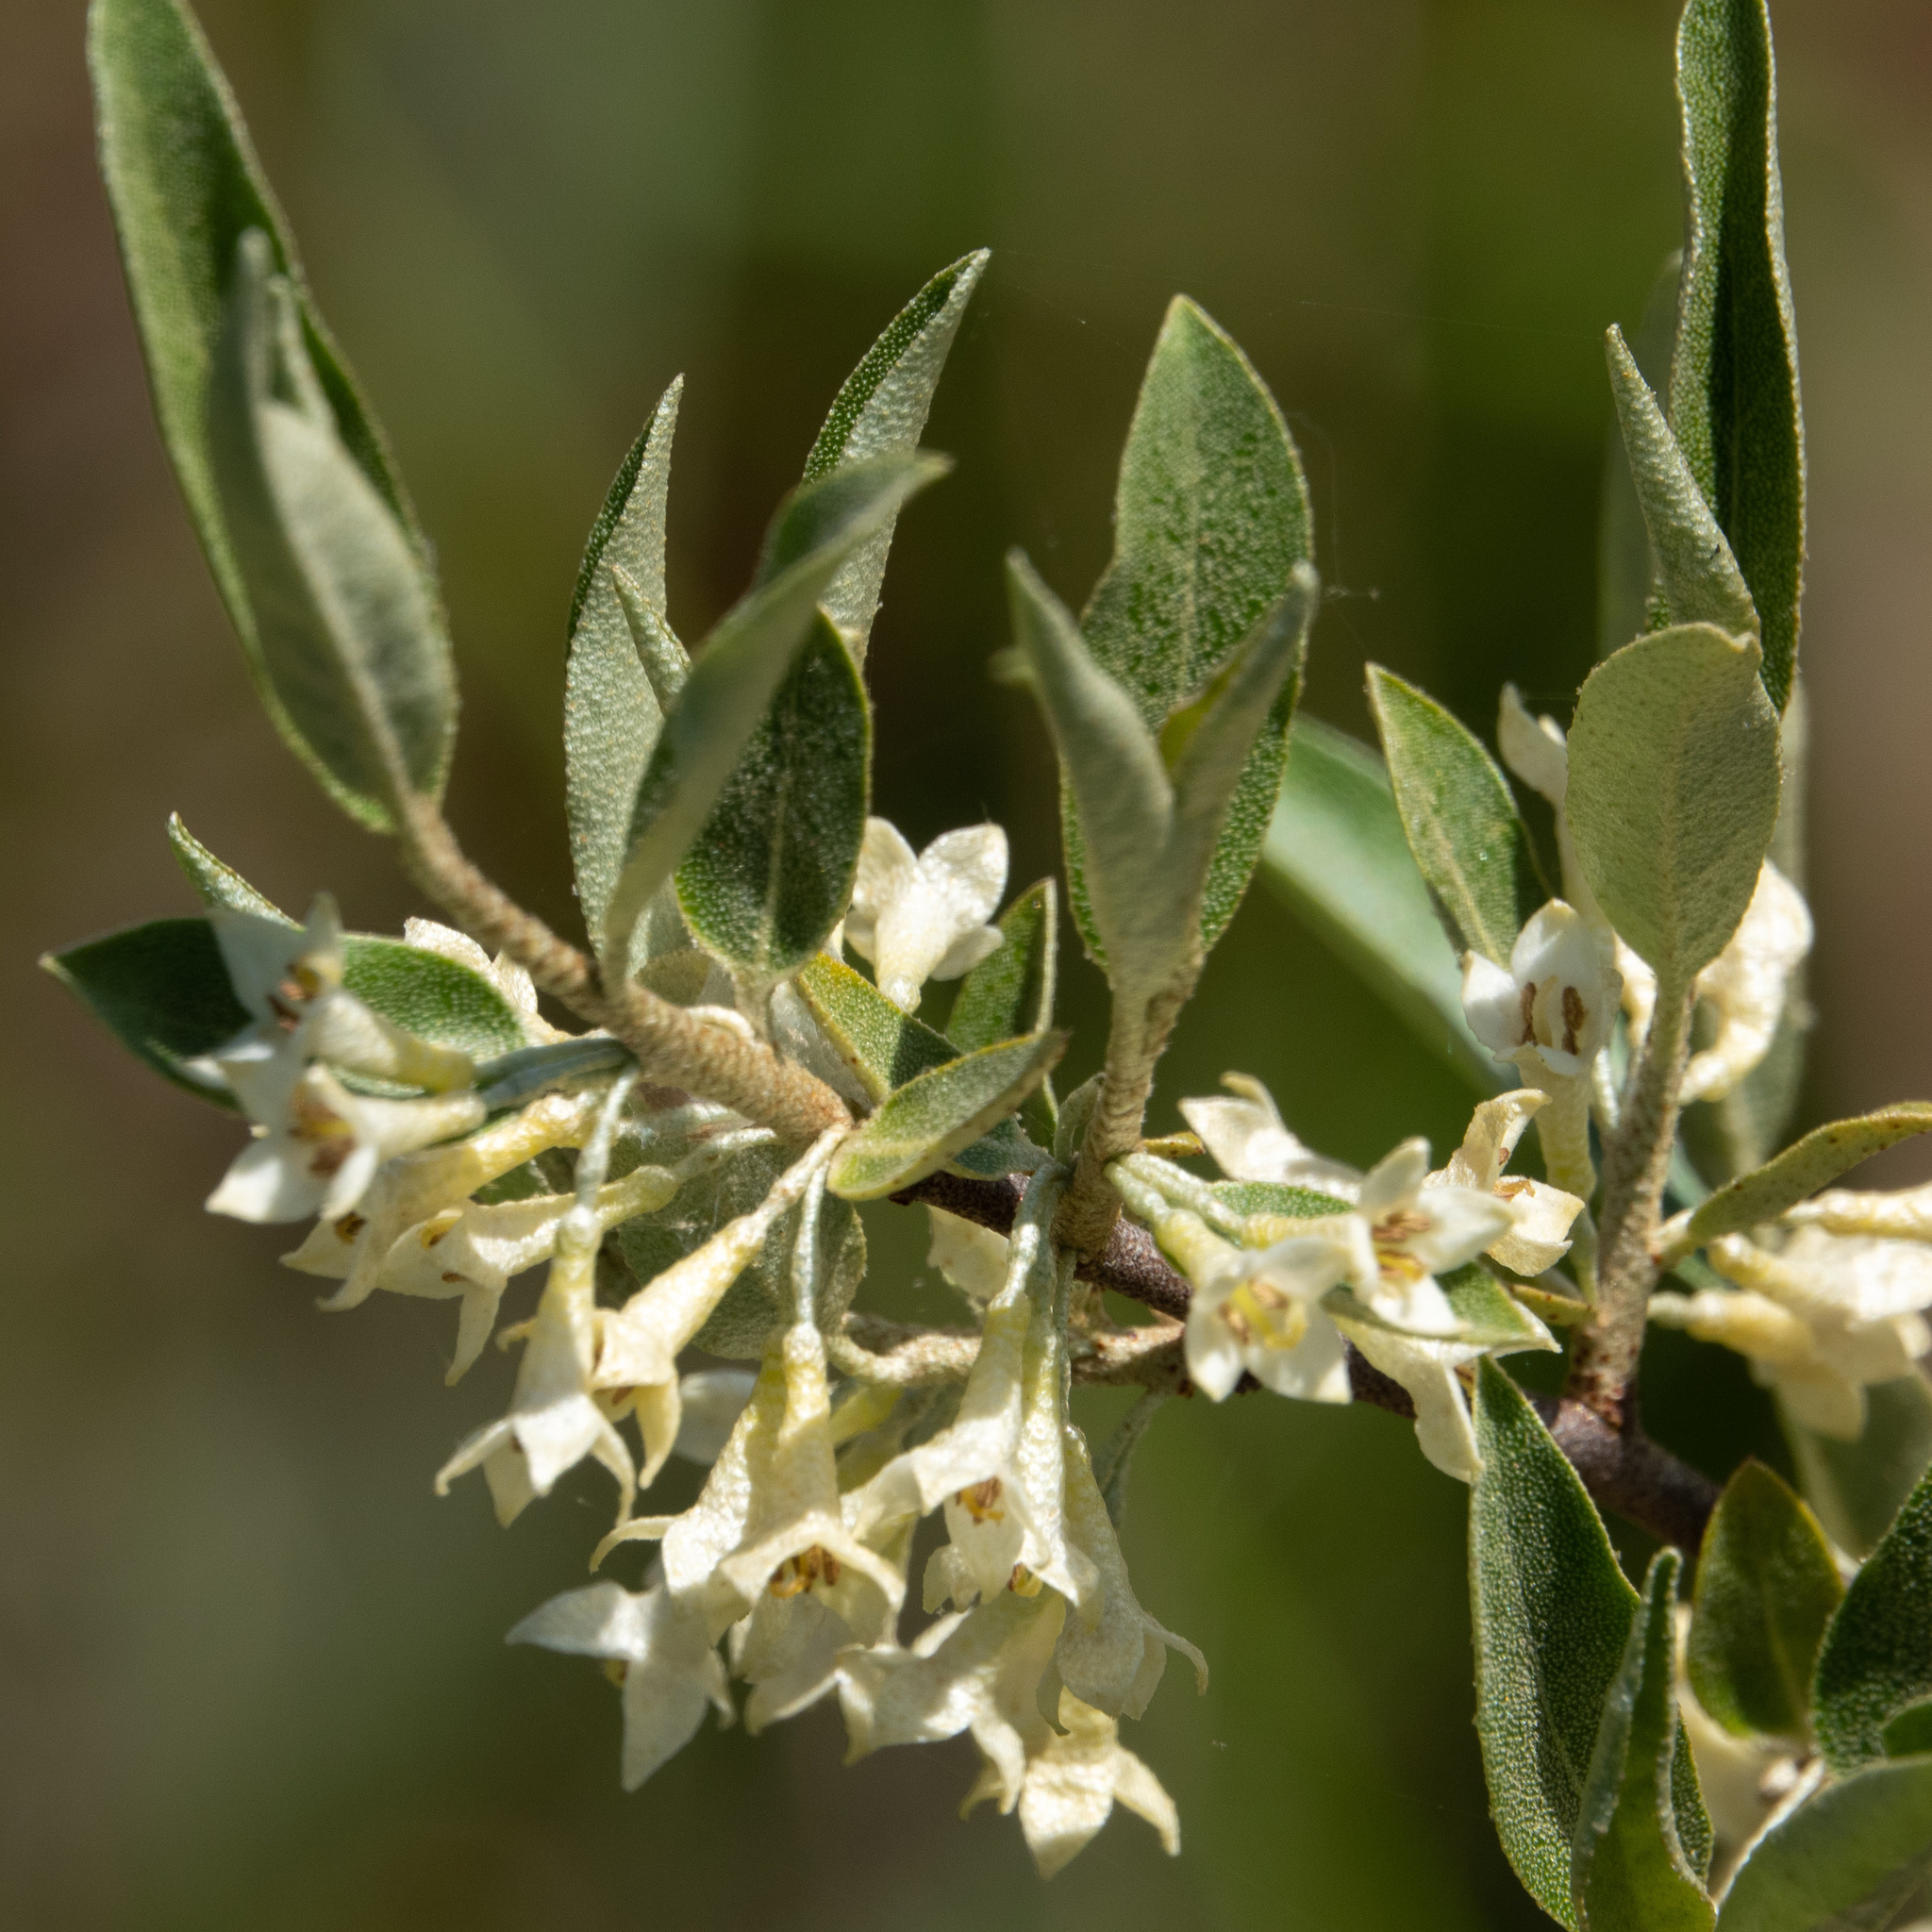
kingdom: Plantae
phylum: Tracheophyta
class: Magnoliopsida
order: Rosales
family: Elaeagnaceae
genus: Elaeagnus
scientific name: Elaeagnus umbellata
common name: Autumn olive
